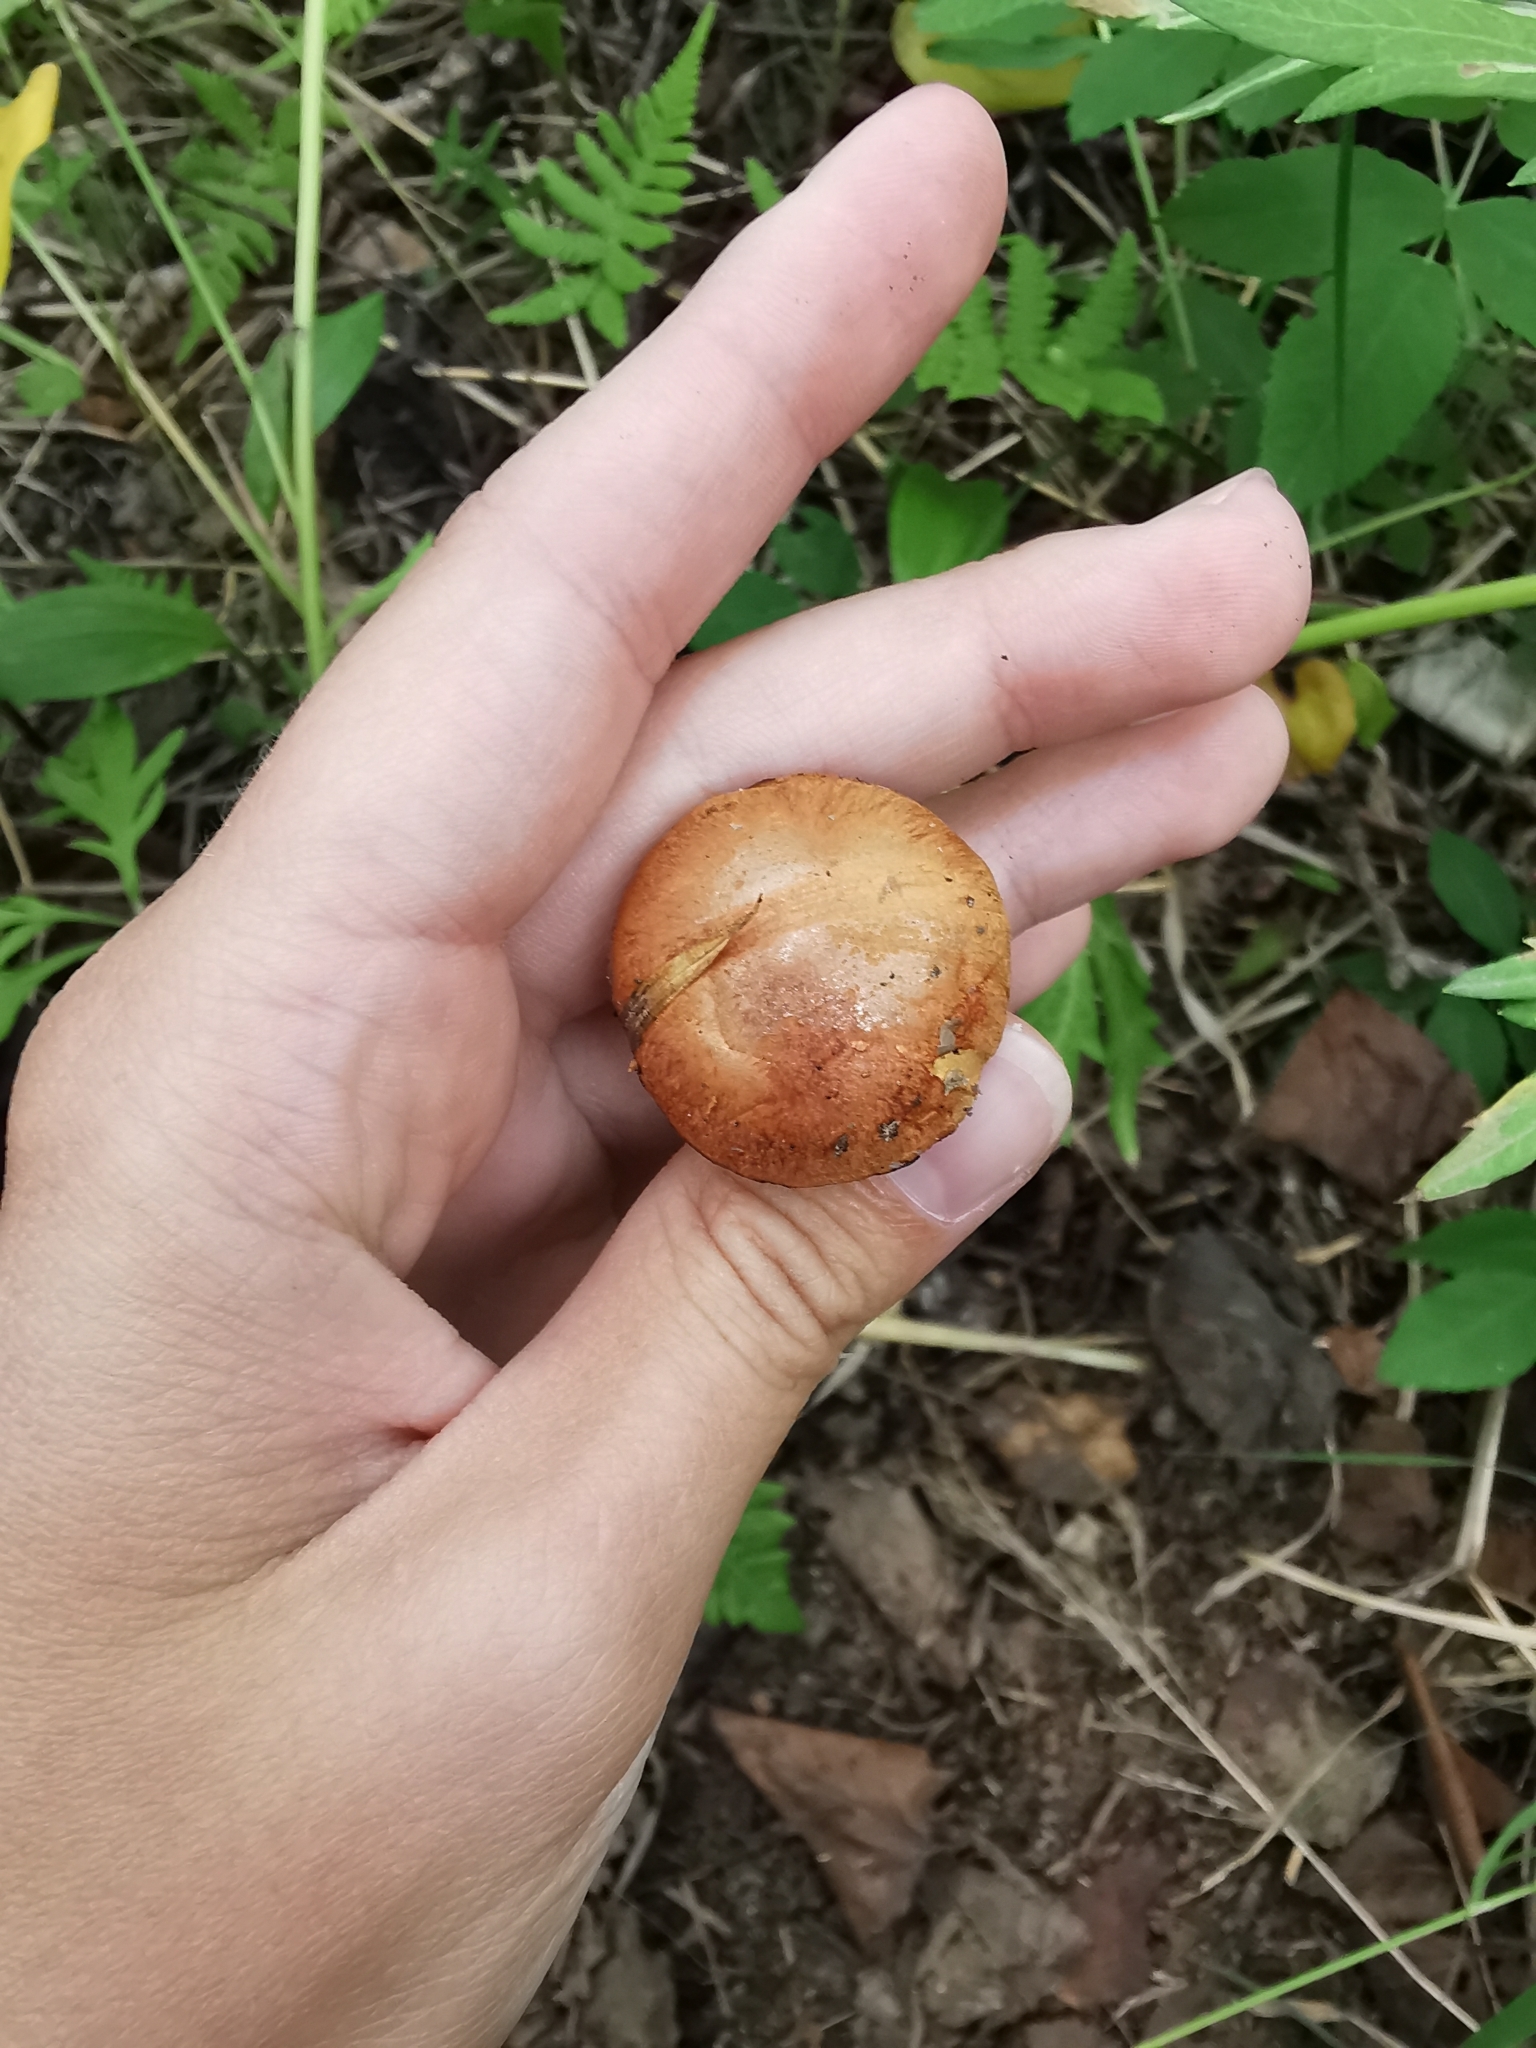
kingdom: Fungi
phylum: Basidiomycota
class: Agaricomycetes
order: Boletales
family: Boletaceae
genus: Chalciporus
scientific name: Chalciporus piperatus
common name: Peppery bolete
